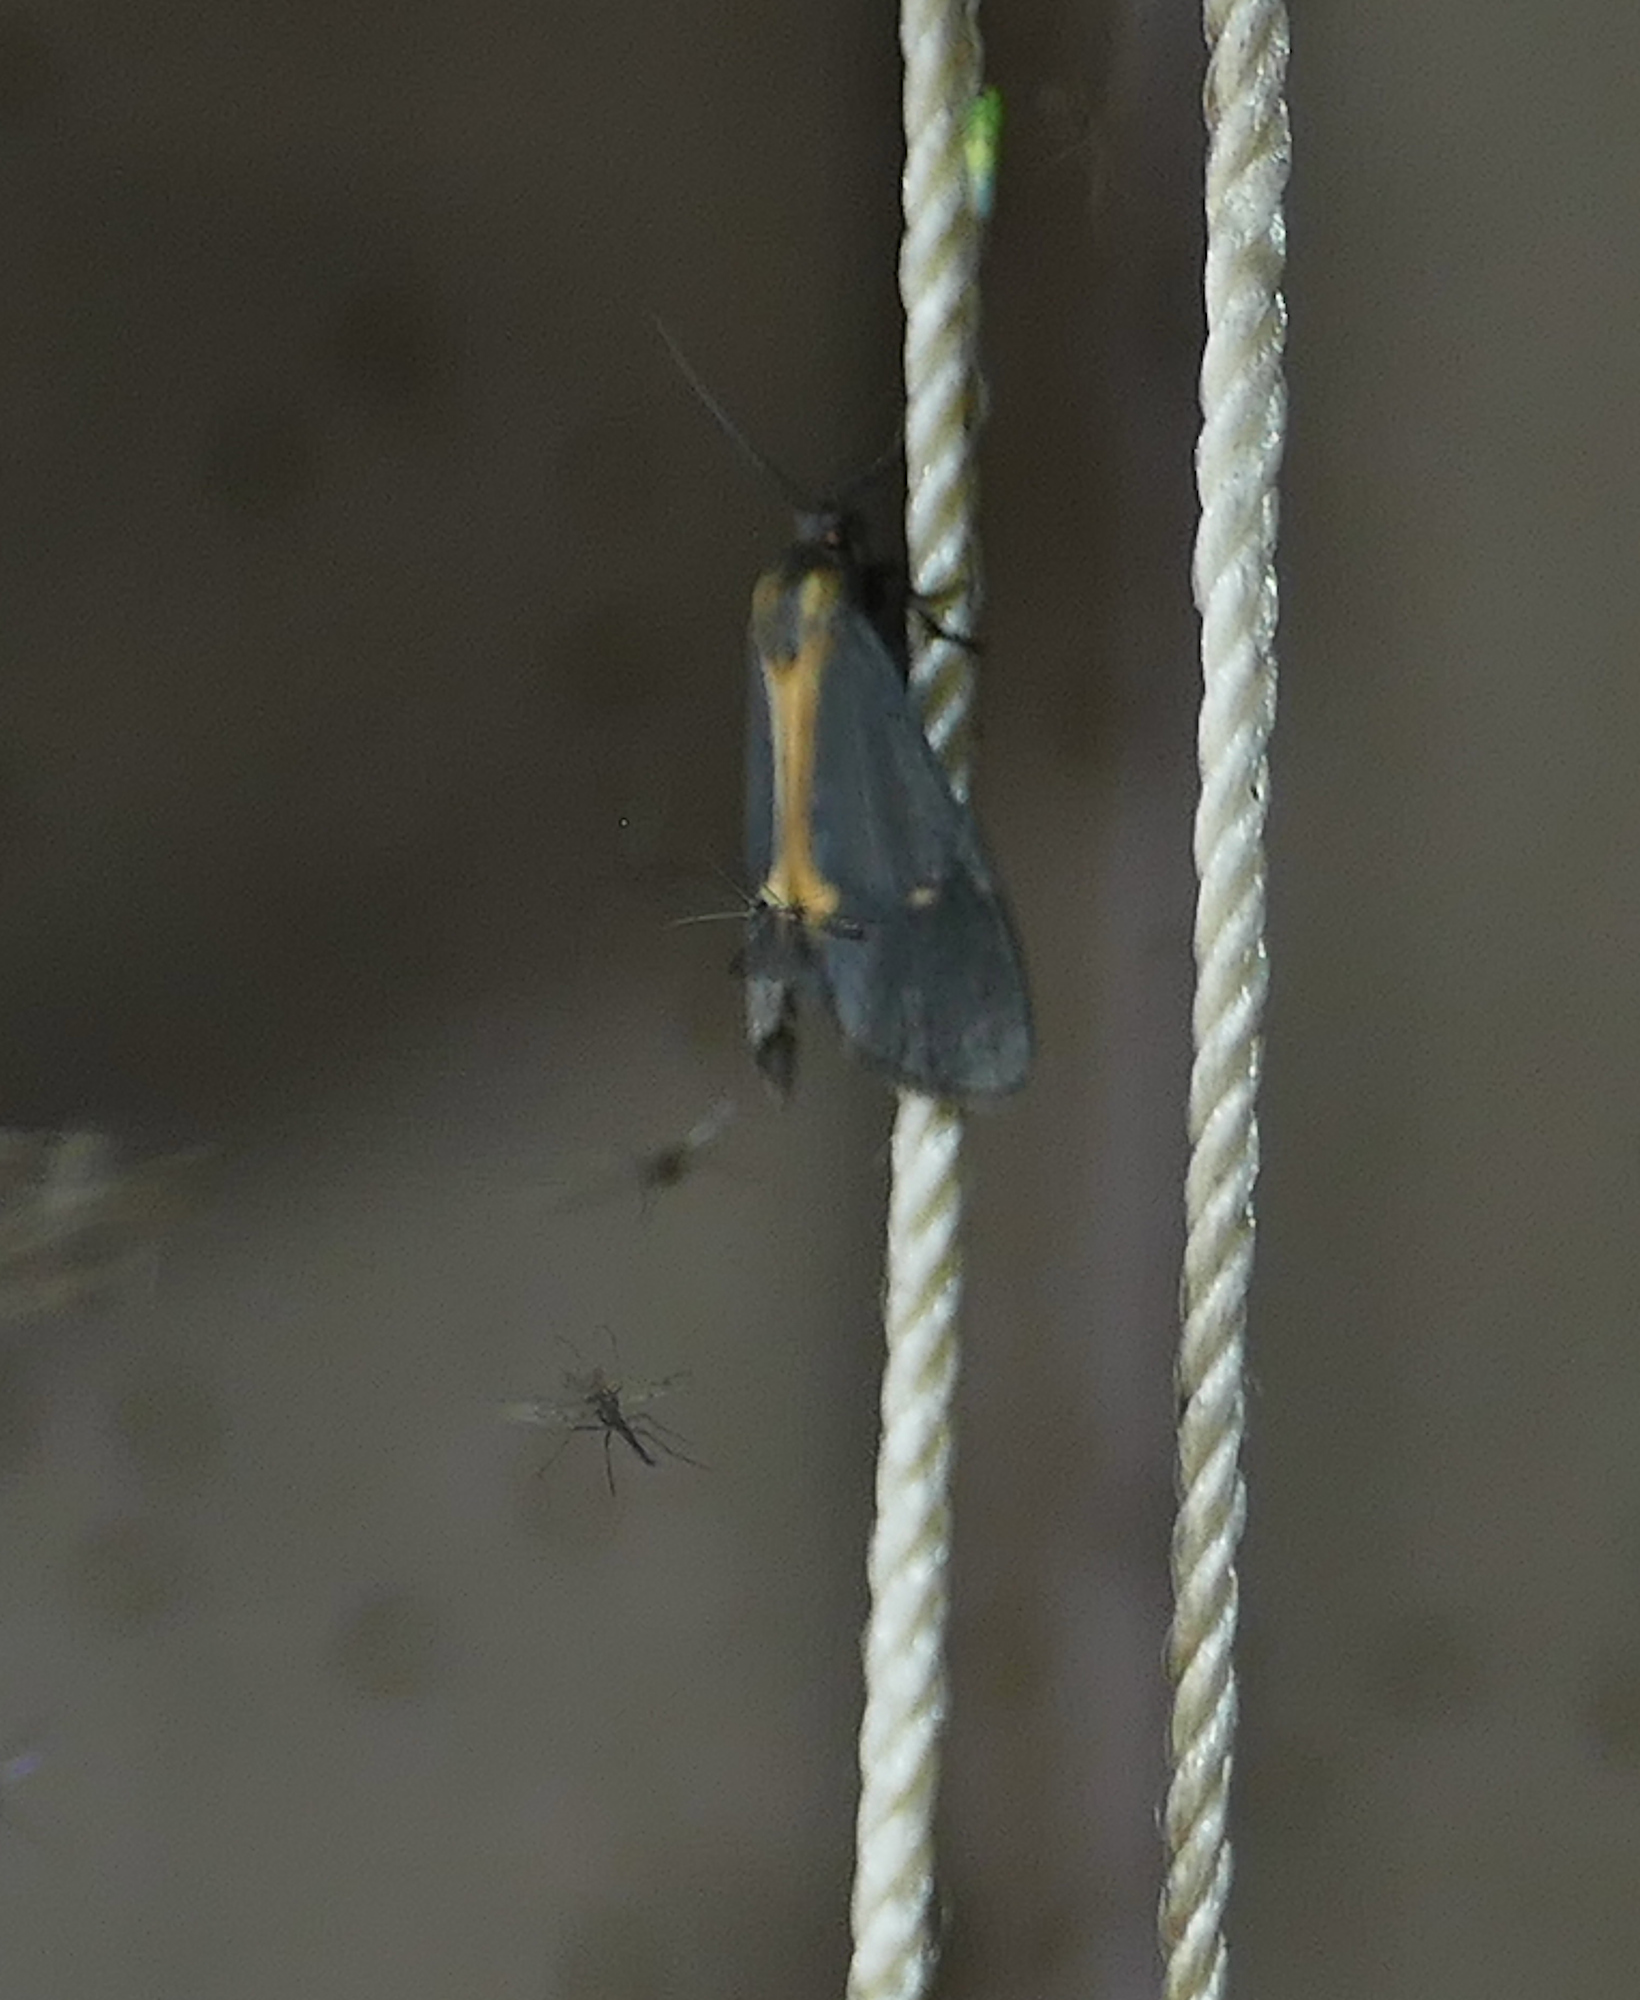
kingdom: Animalia
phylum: Arthropoda
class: Insecta
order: Lepidoptera
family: Erebidae
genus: Cisthene
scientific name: Cisthene barnesii
